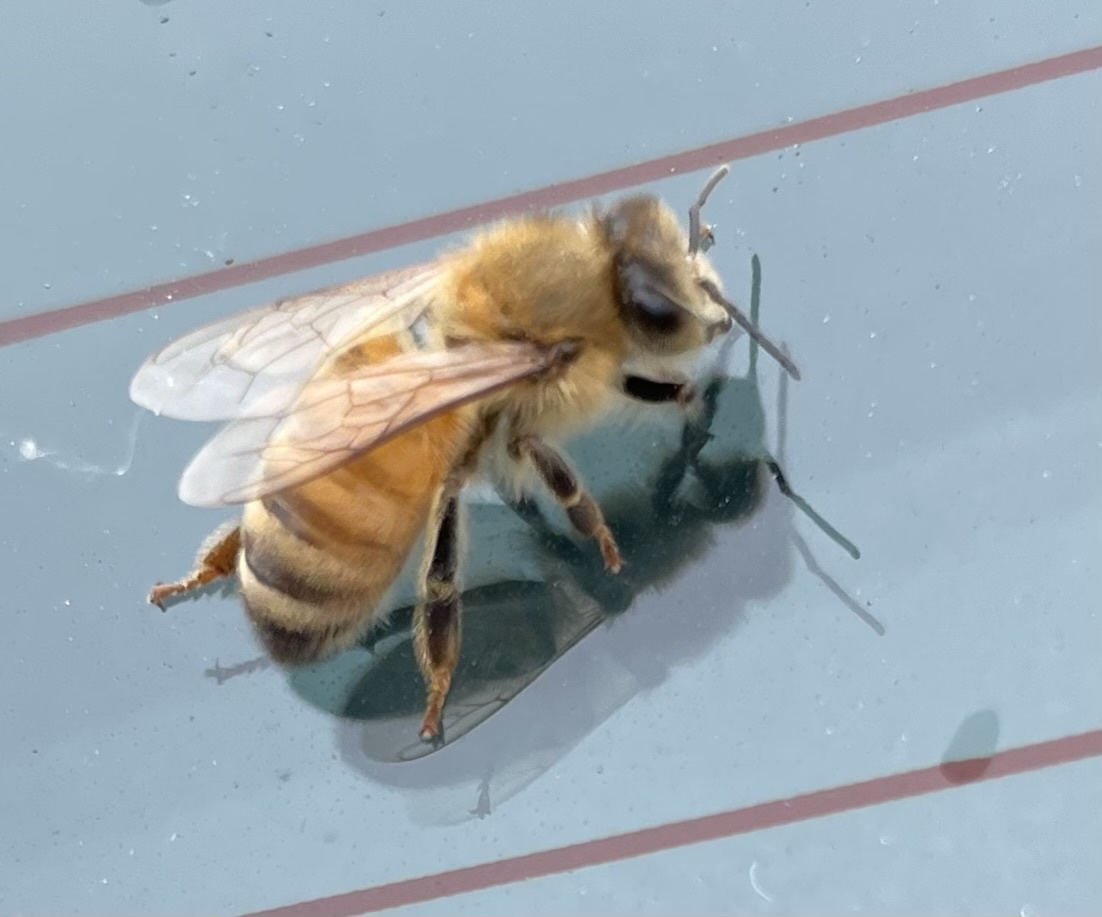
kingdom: Animalia
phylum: Arthropoda
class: Insecta
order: Hymenoptera
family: Apidae
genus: Apis
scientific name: Apis mellifera
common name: Honey bee
